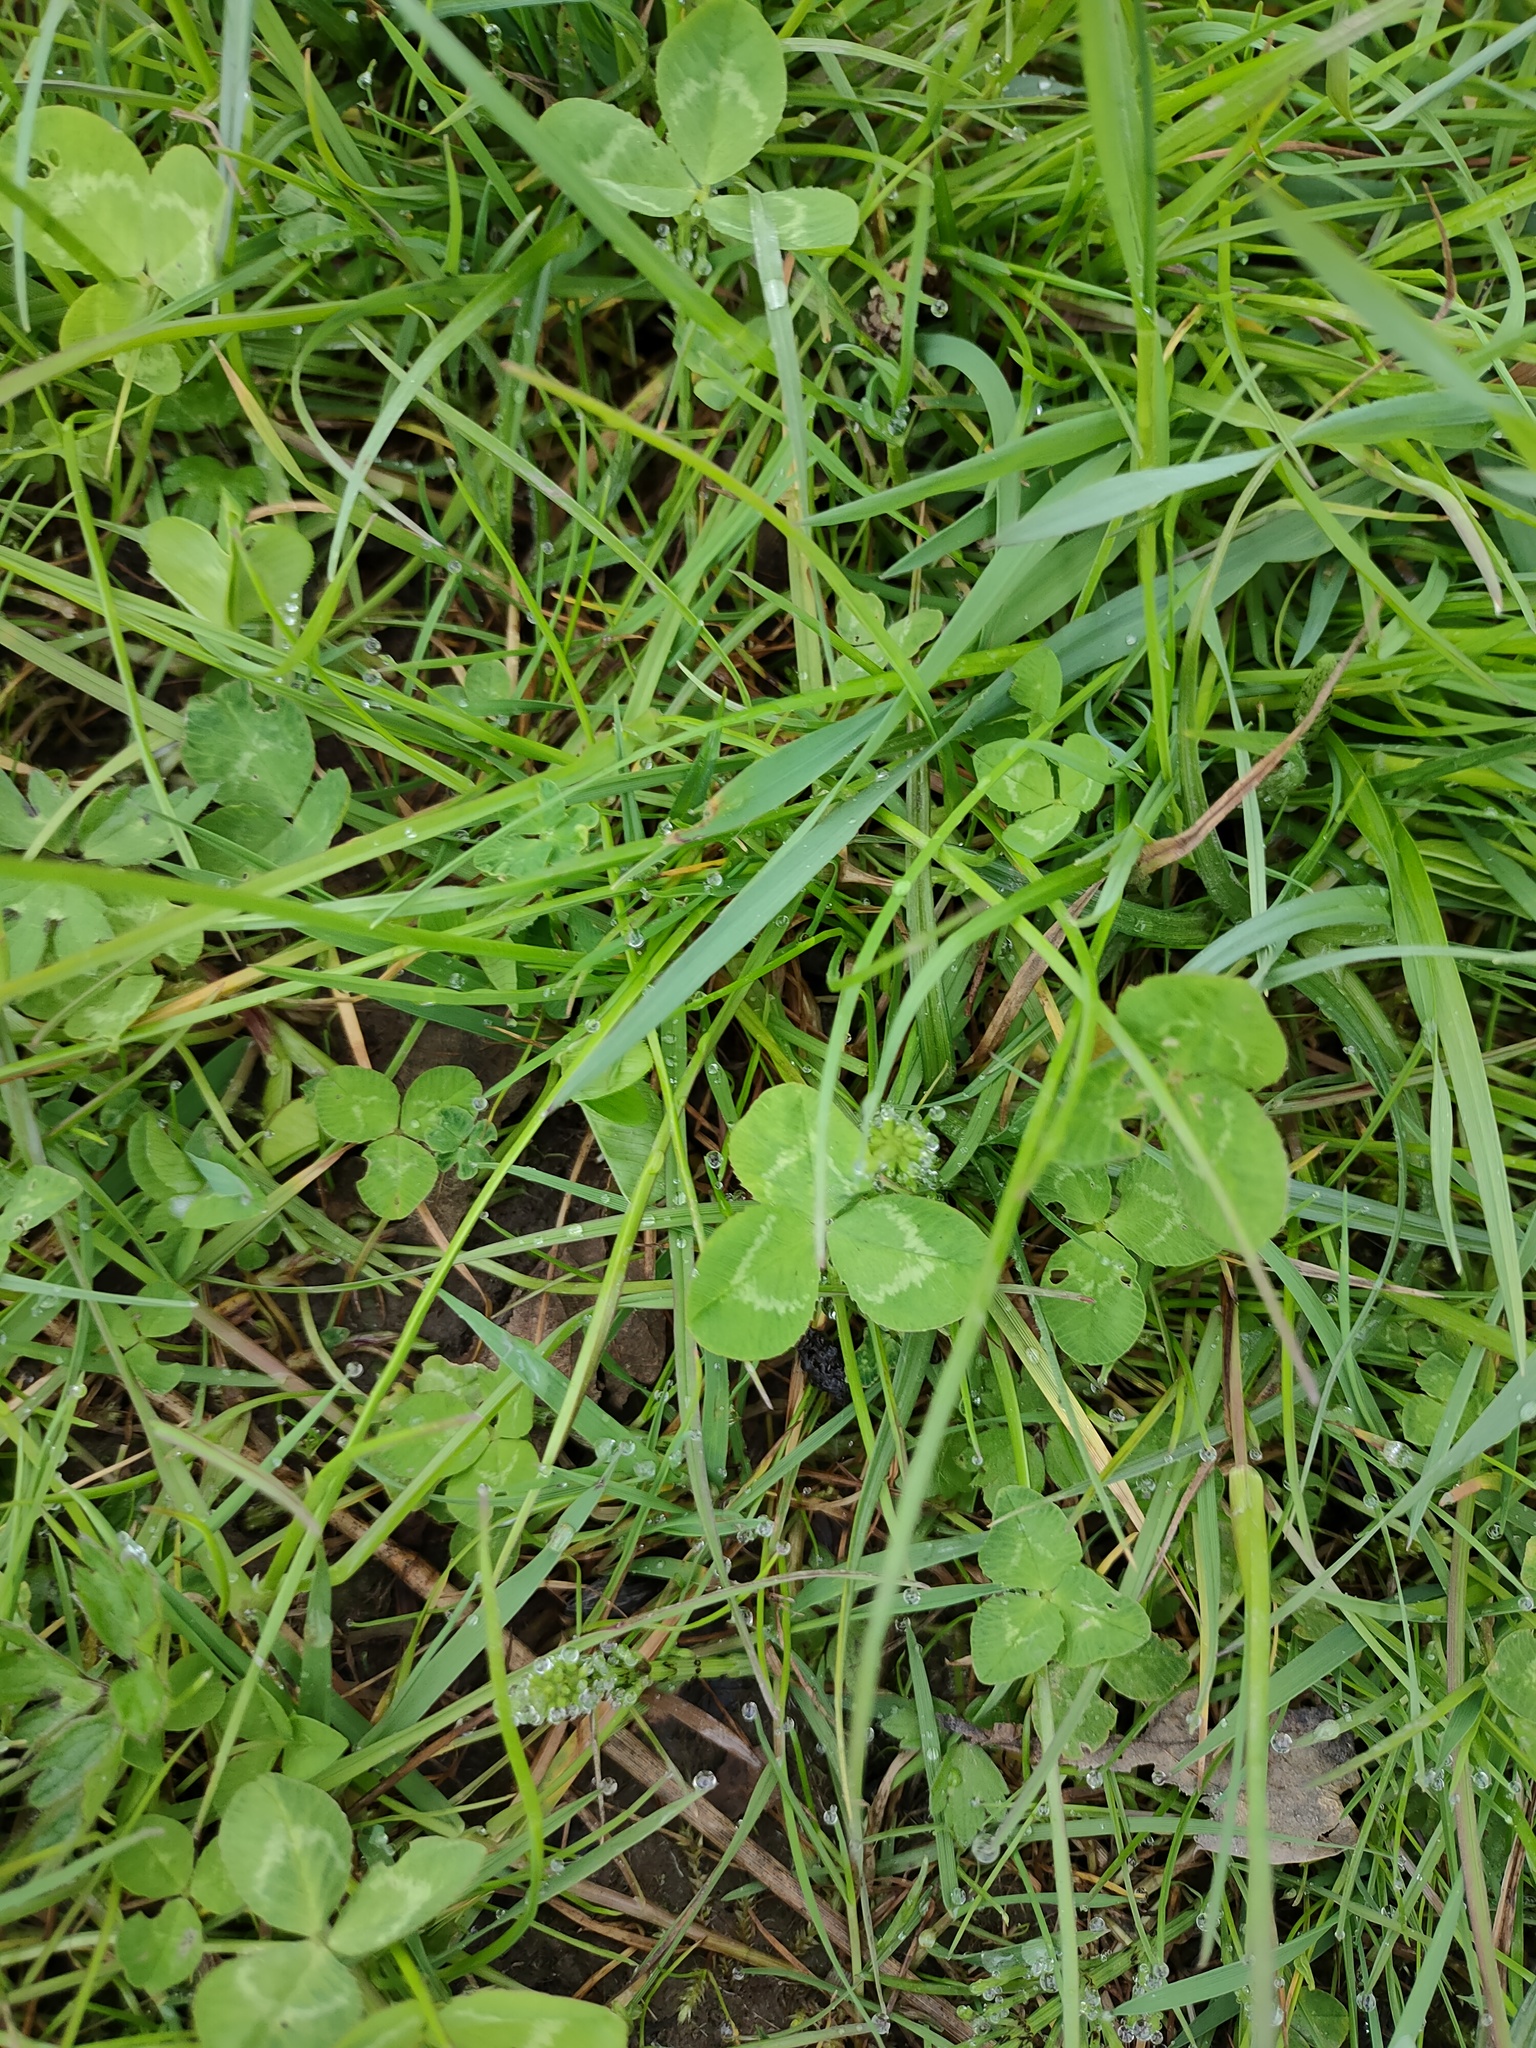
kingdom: Plantae
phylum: Tracheophyta
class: Magnoliopsida
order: Fabales
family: Fabaceae
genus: Trifolium
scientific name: Trifolium repens
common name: White clover
